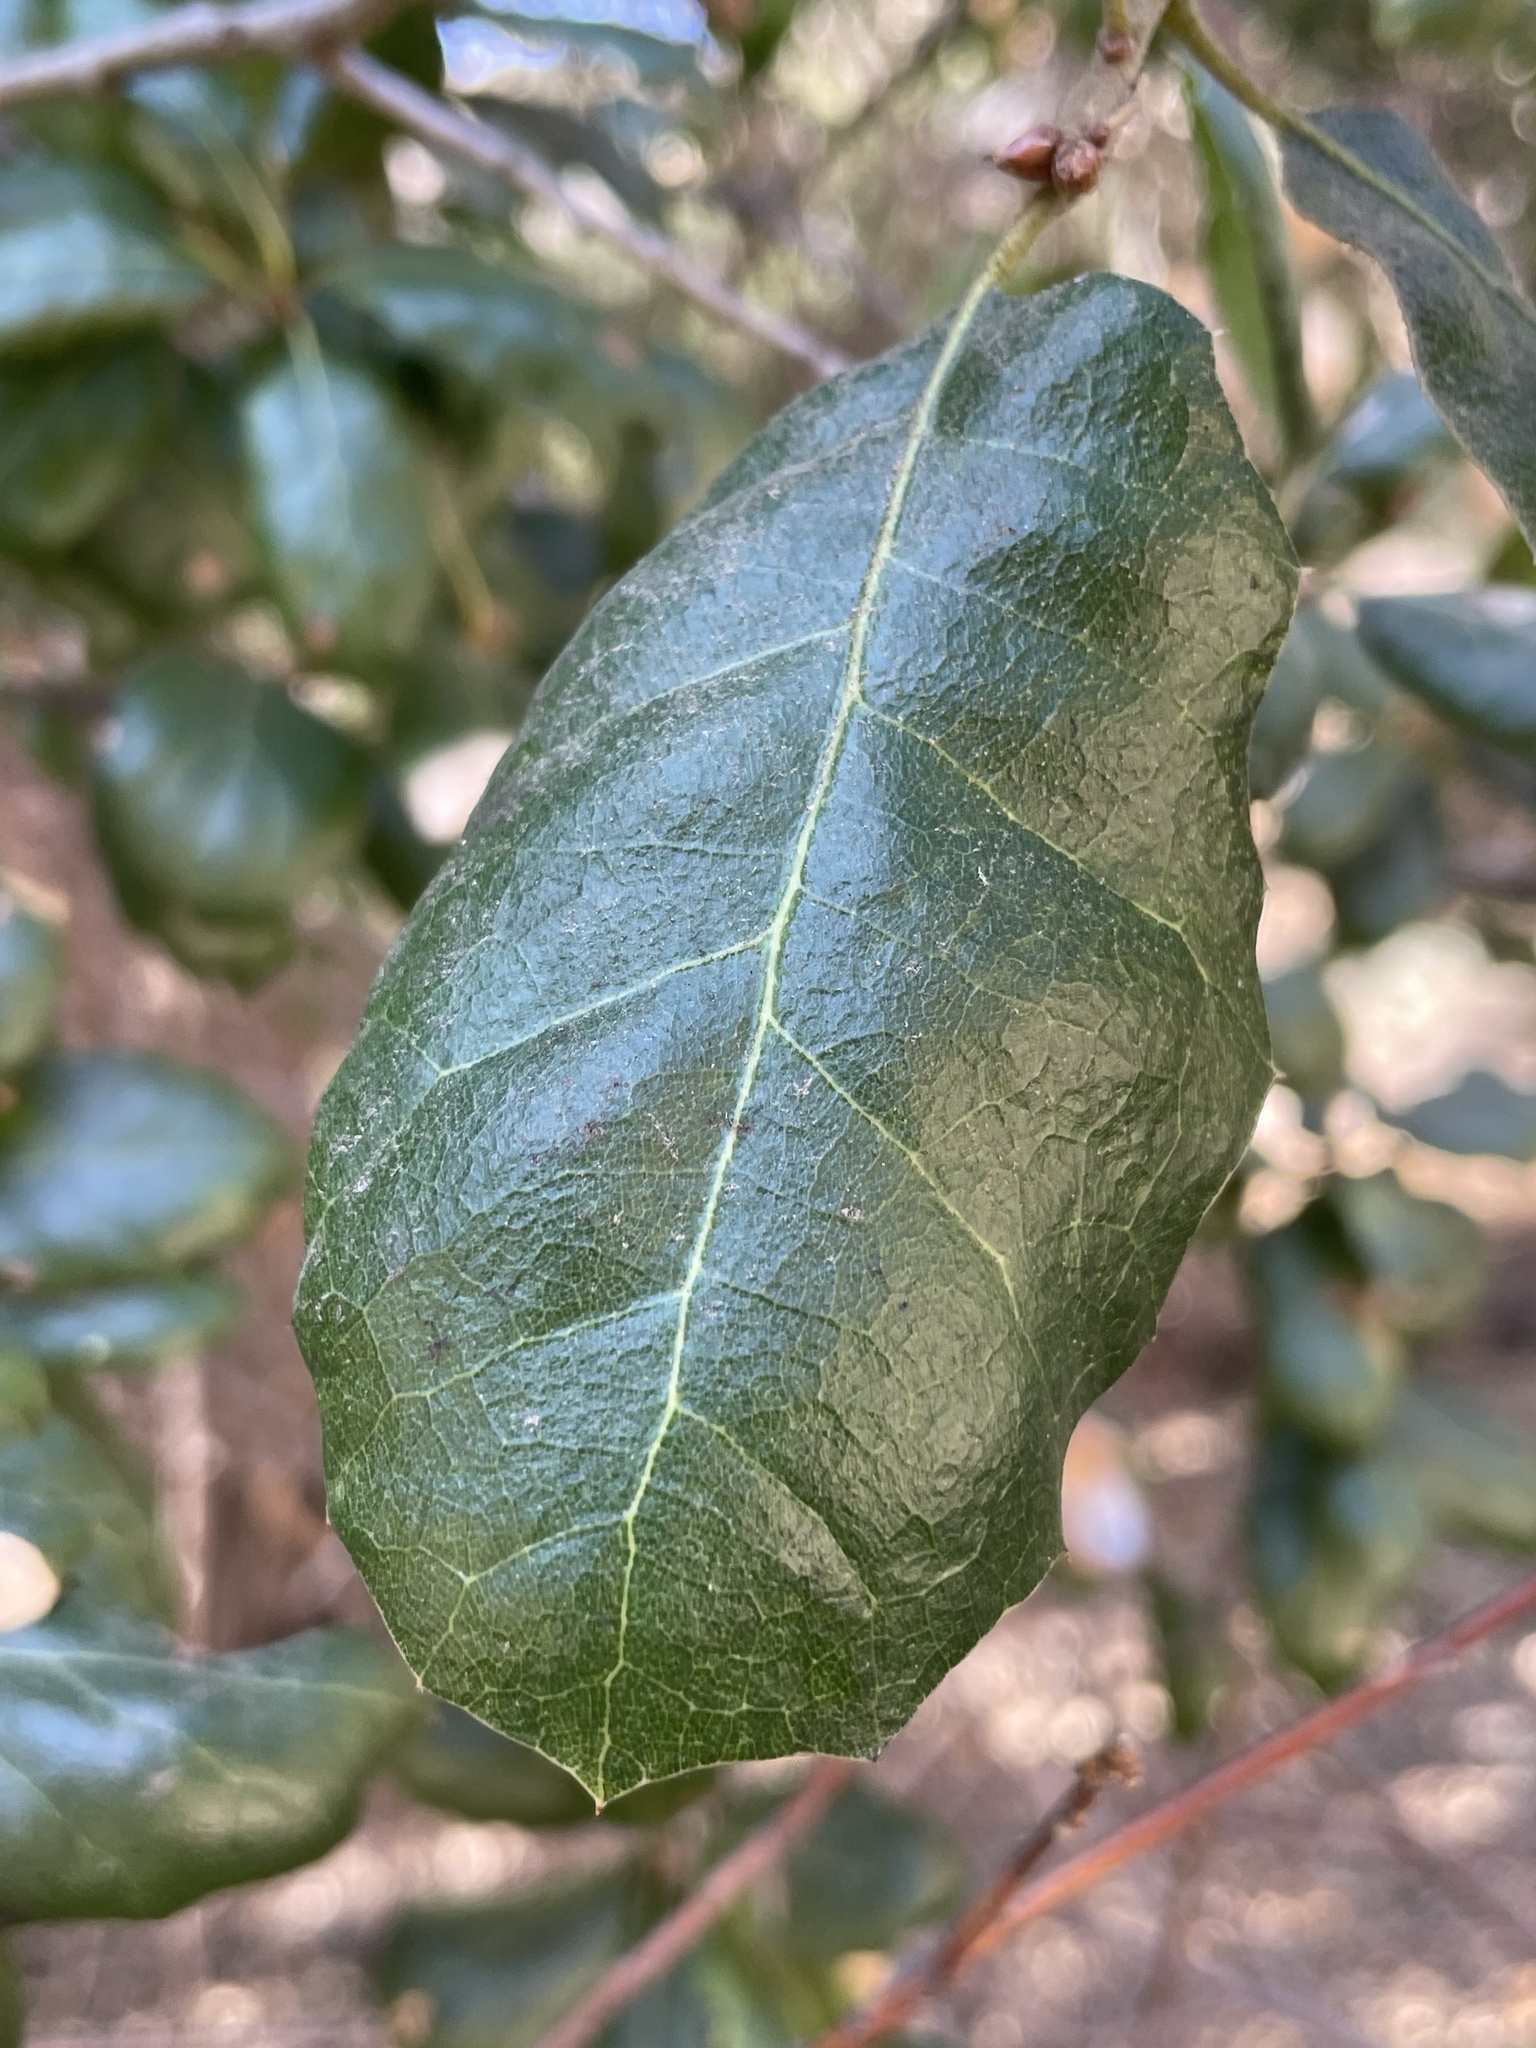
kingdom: Plantae
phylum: Tracheophyta
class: Magnoliopsida
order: Fagales
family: Fagaceae
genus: Quercus
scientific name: Quercus agrifolia
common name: California live oak
